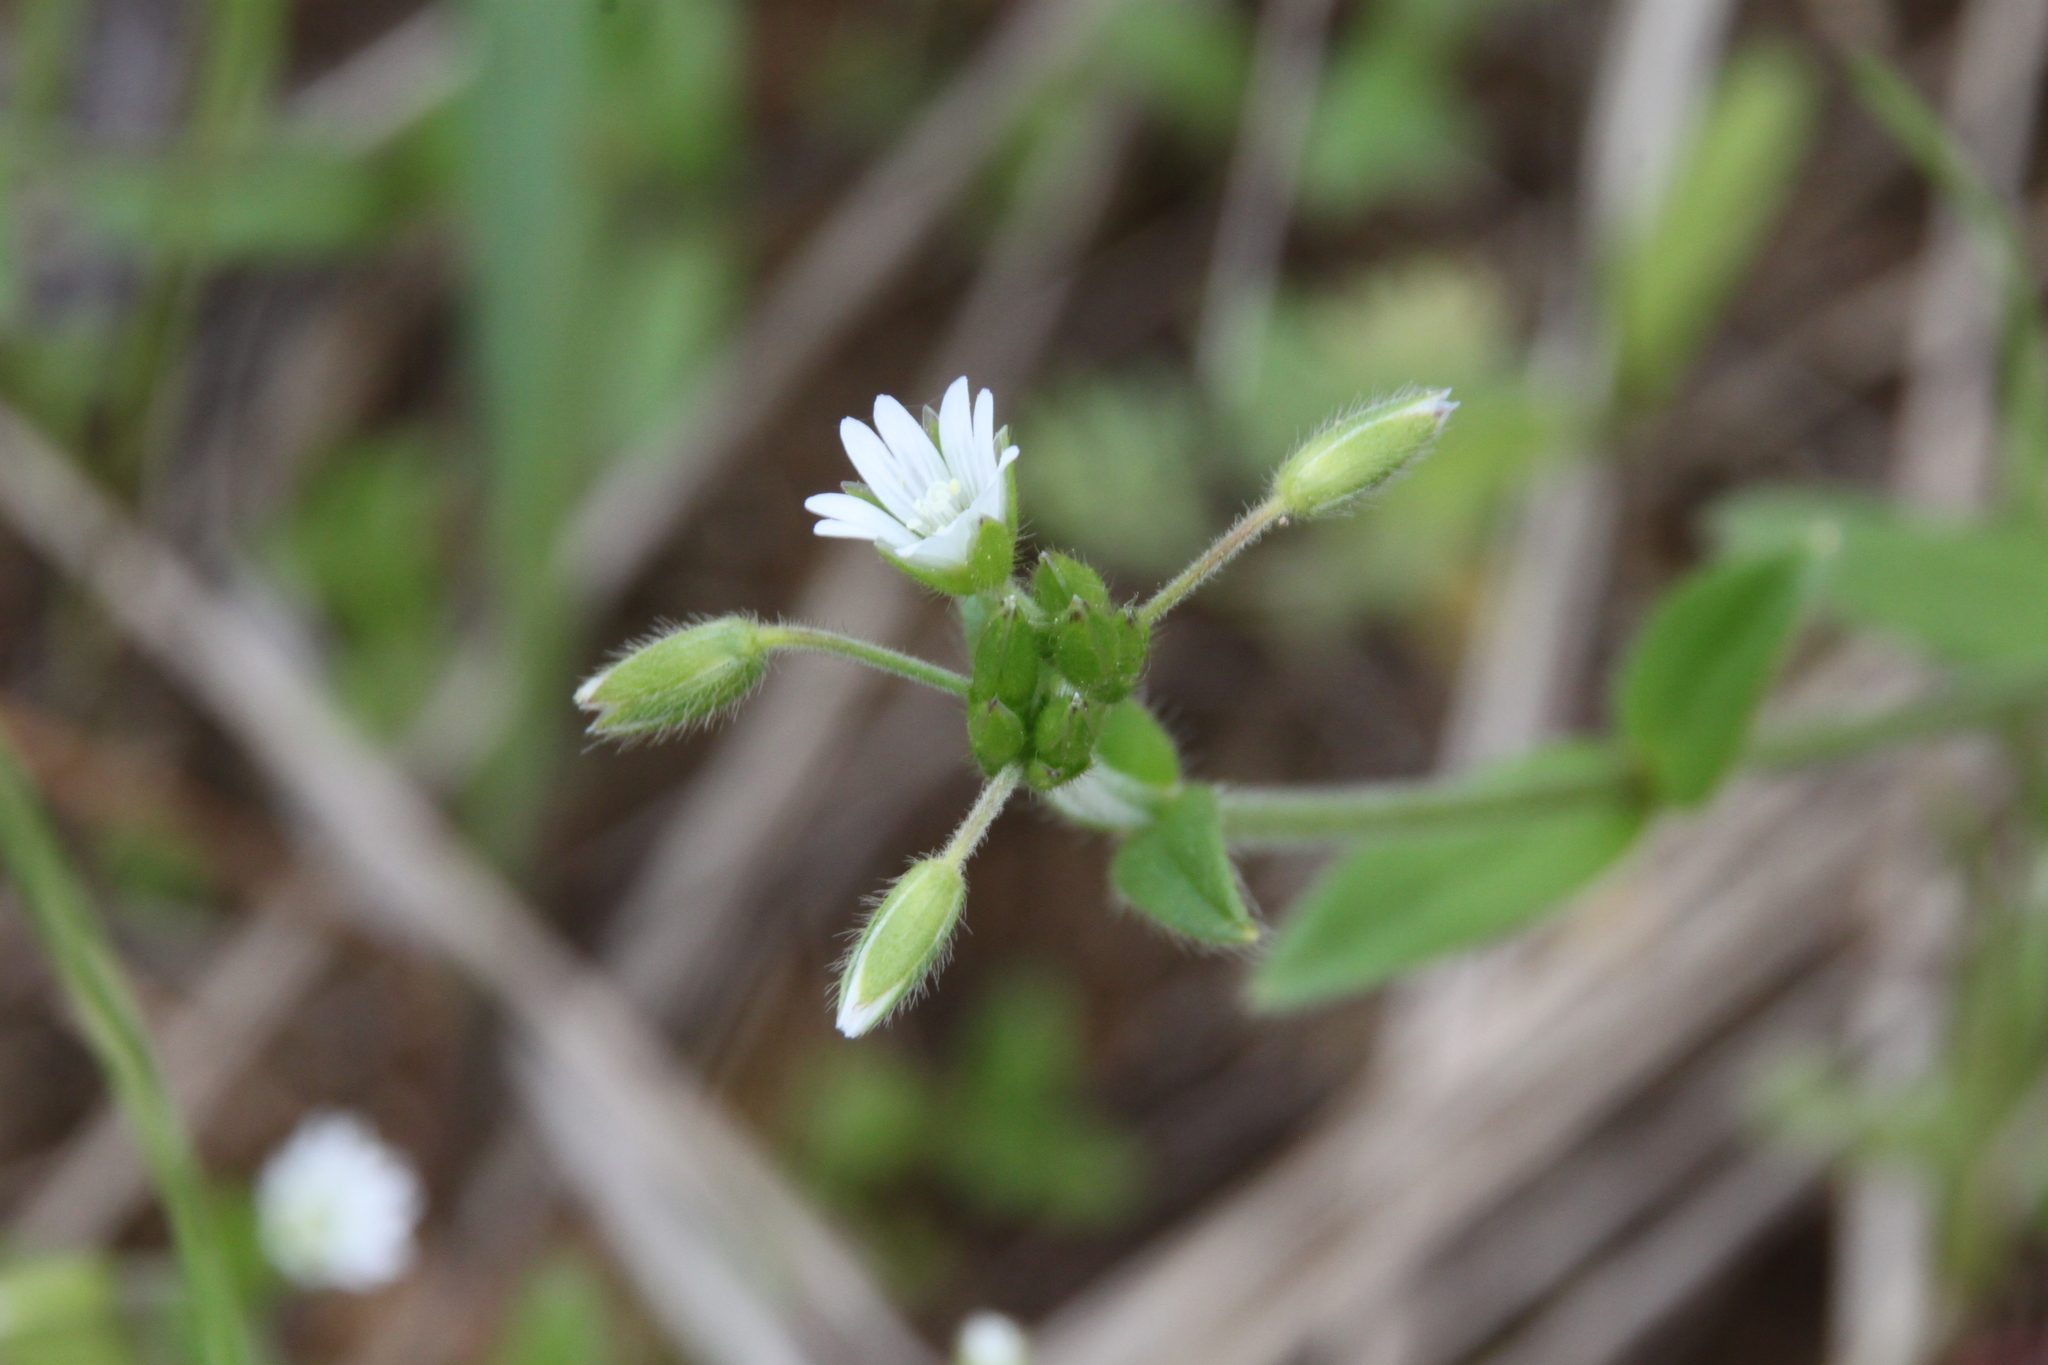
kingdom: Plantae
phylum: Tracheophyta
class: Magnoliopsida
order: Caryophyllales
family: Caryophyllaceae
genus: Cerastium
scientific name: Cerastium holosteoides
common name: Big chickweed
